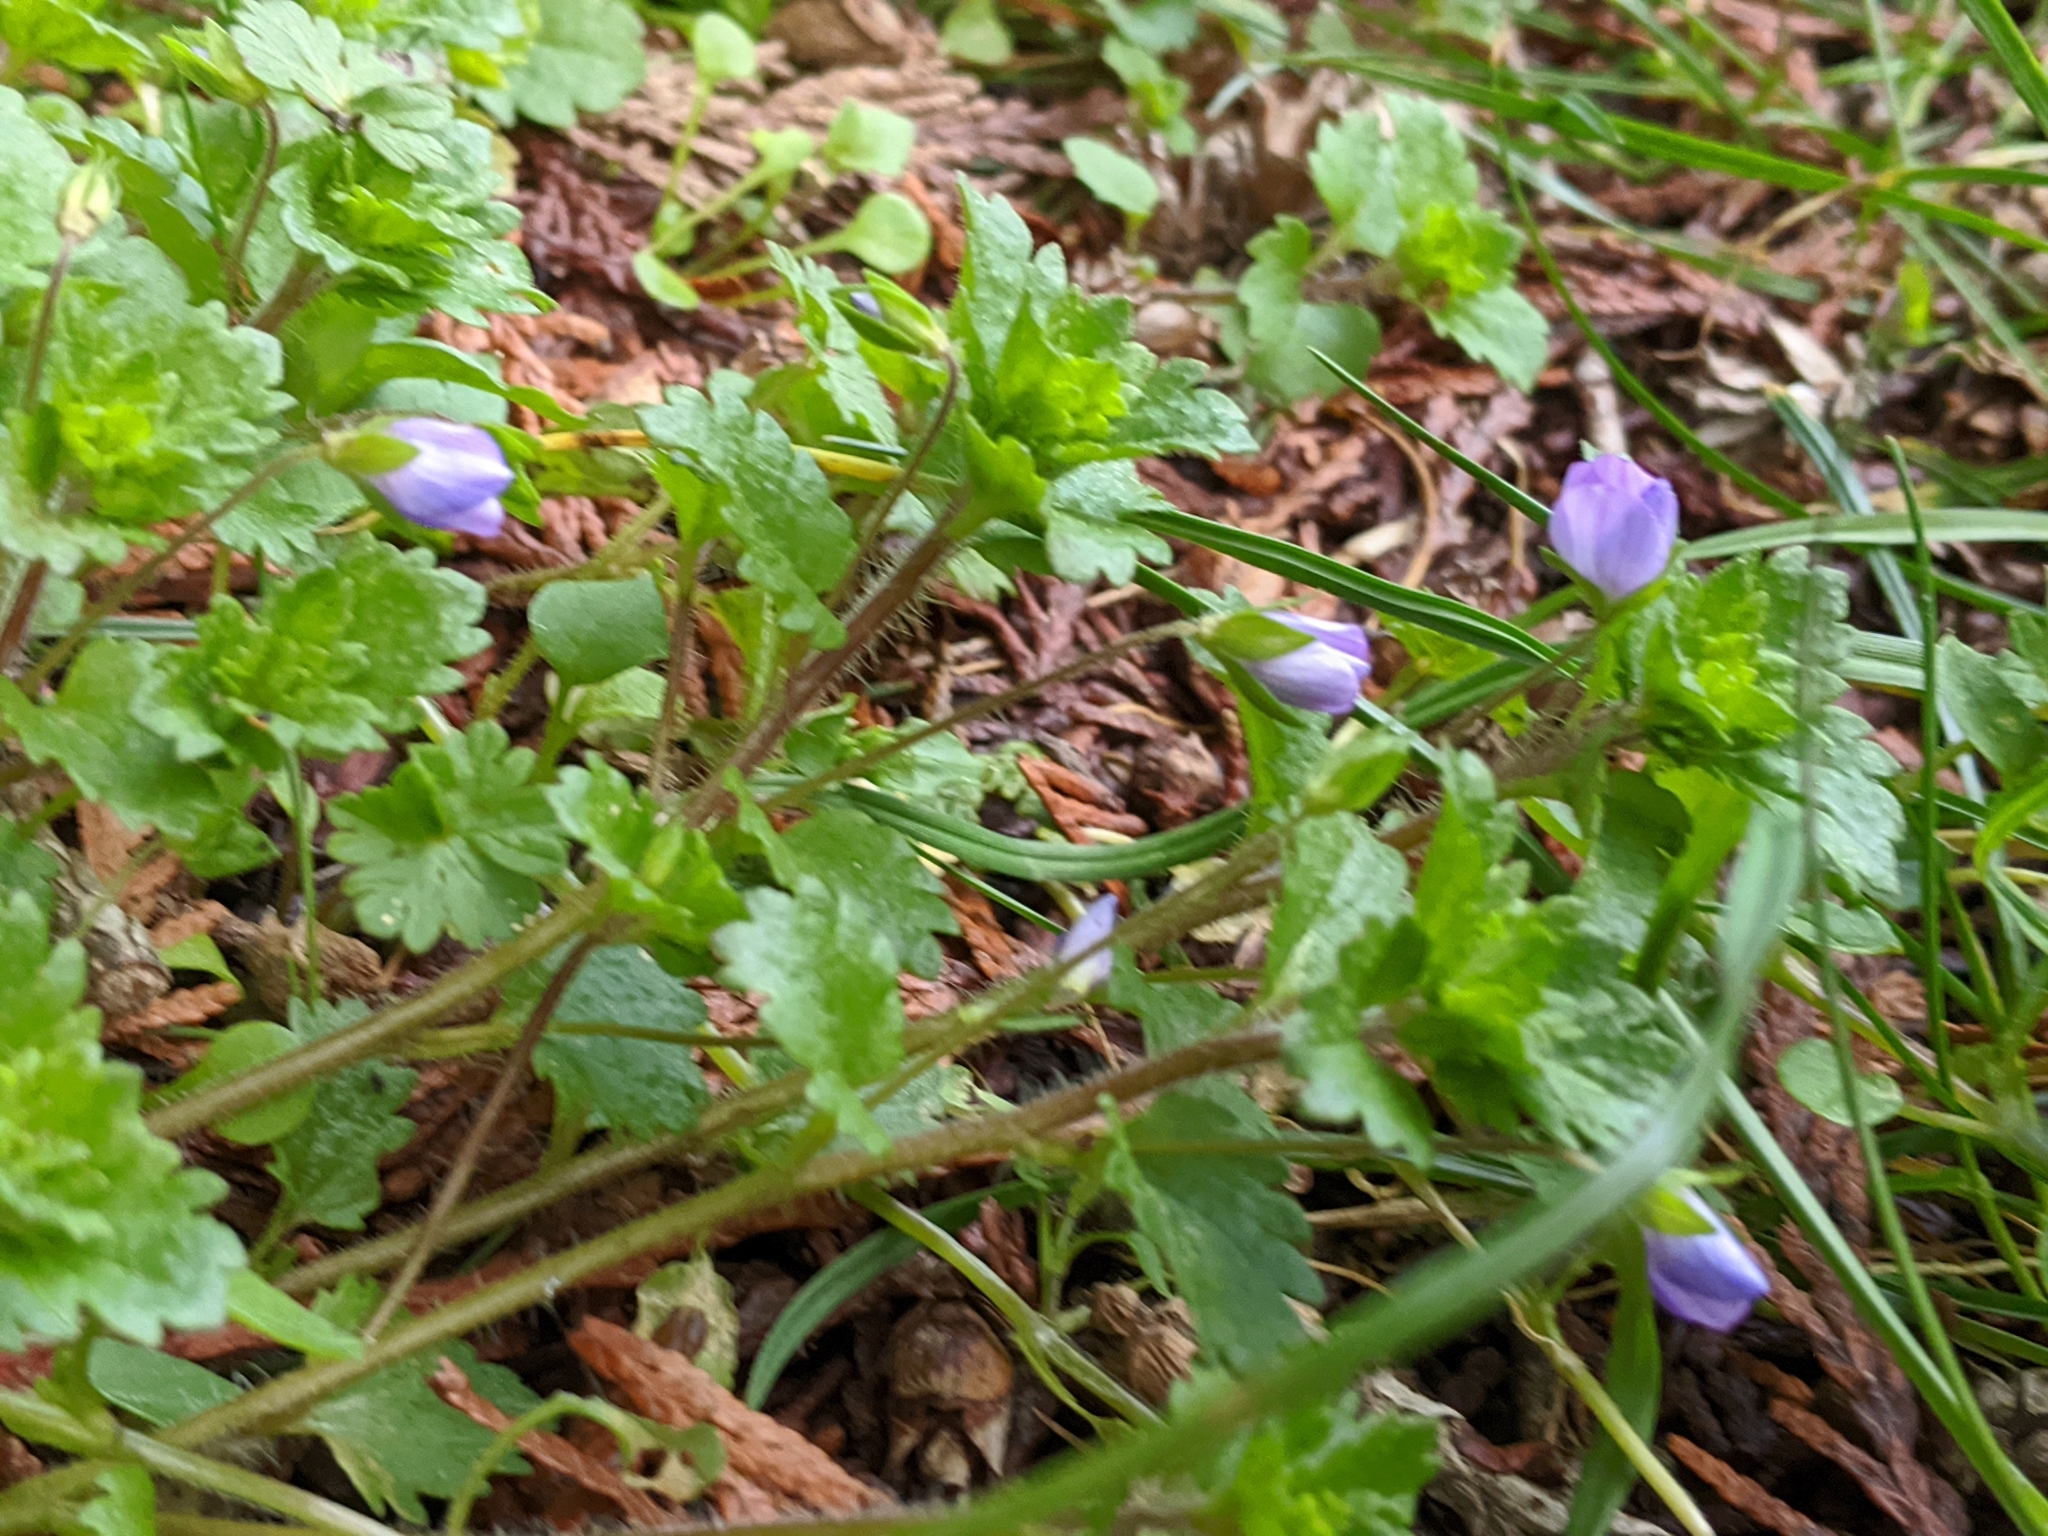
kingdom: Plantae
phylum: Tracheophyta
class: Magnoliopsida
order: Lamiales
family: Plantaginaceae
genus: Veronica
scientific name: Veronica persica
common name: Common field-speedwell
